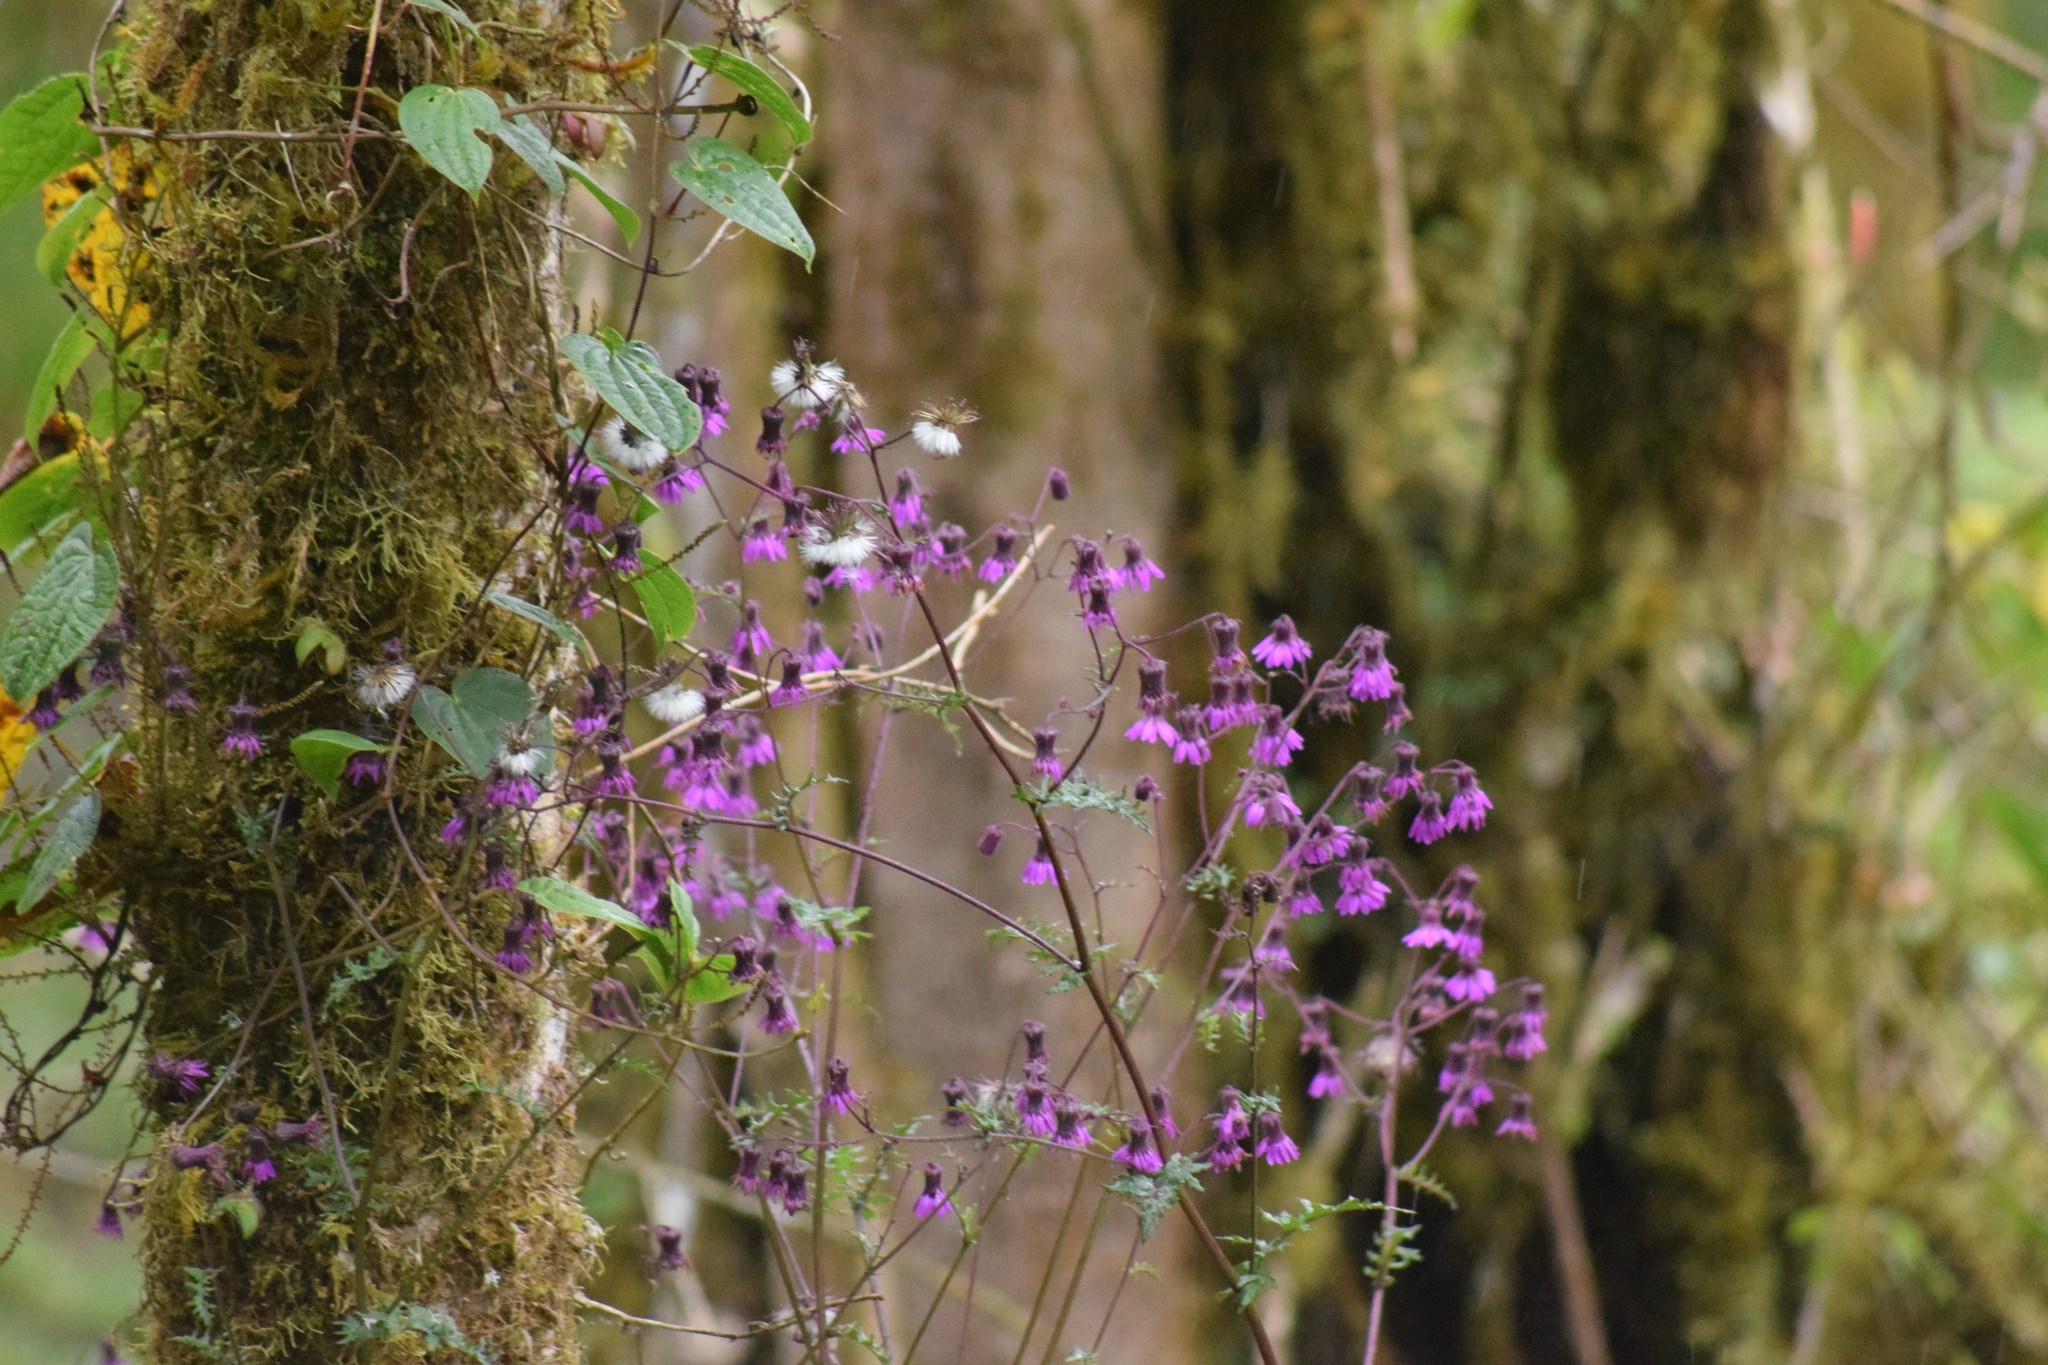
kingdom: Plantae
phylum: Tracheophyta
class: Magnoliopsida
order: Asterales
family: Asteraceae
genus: Senecio
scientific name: Senecio garcibarrigae
